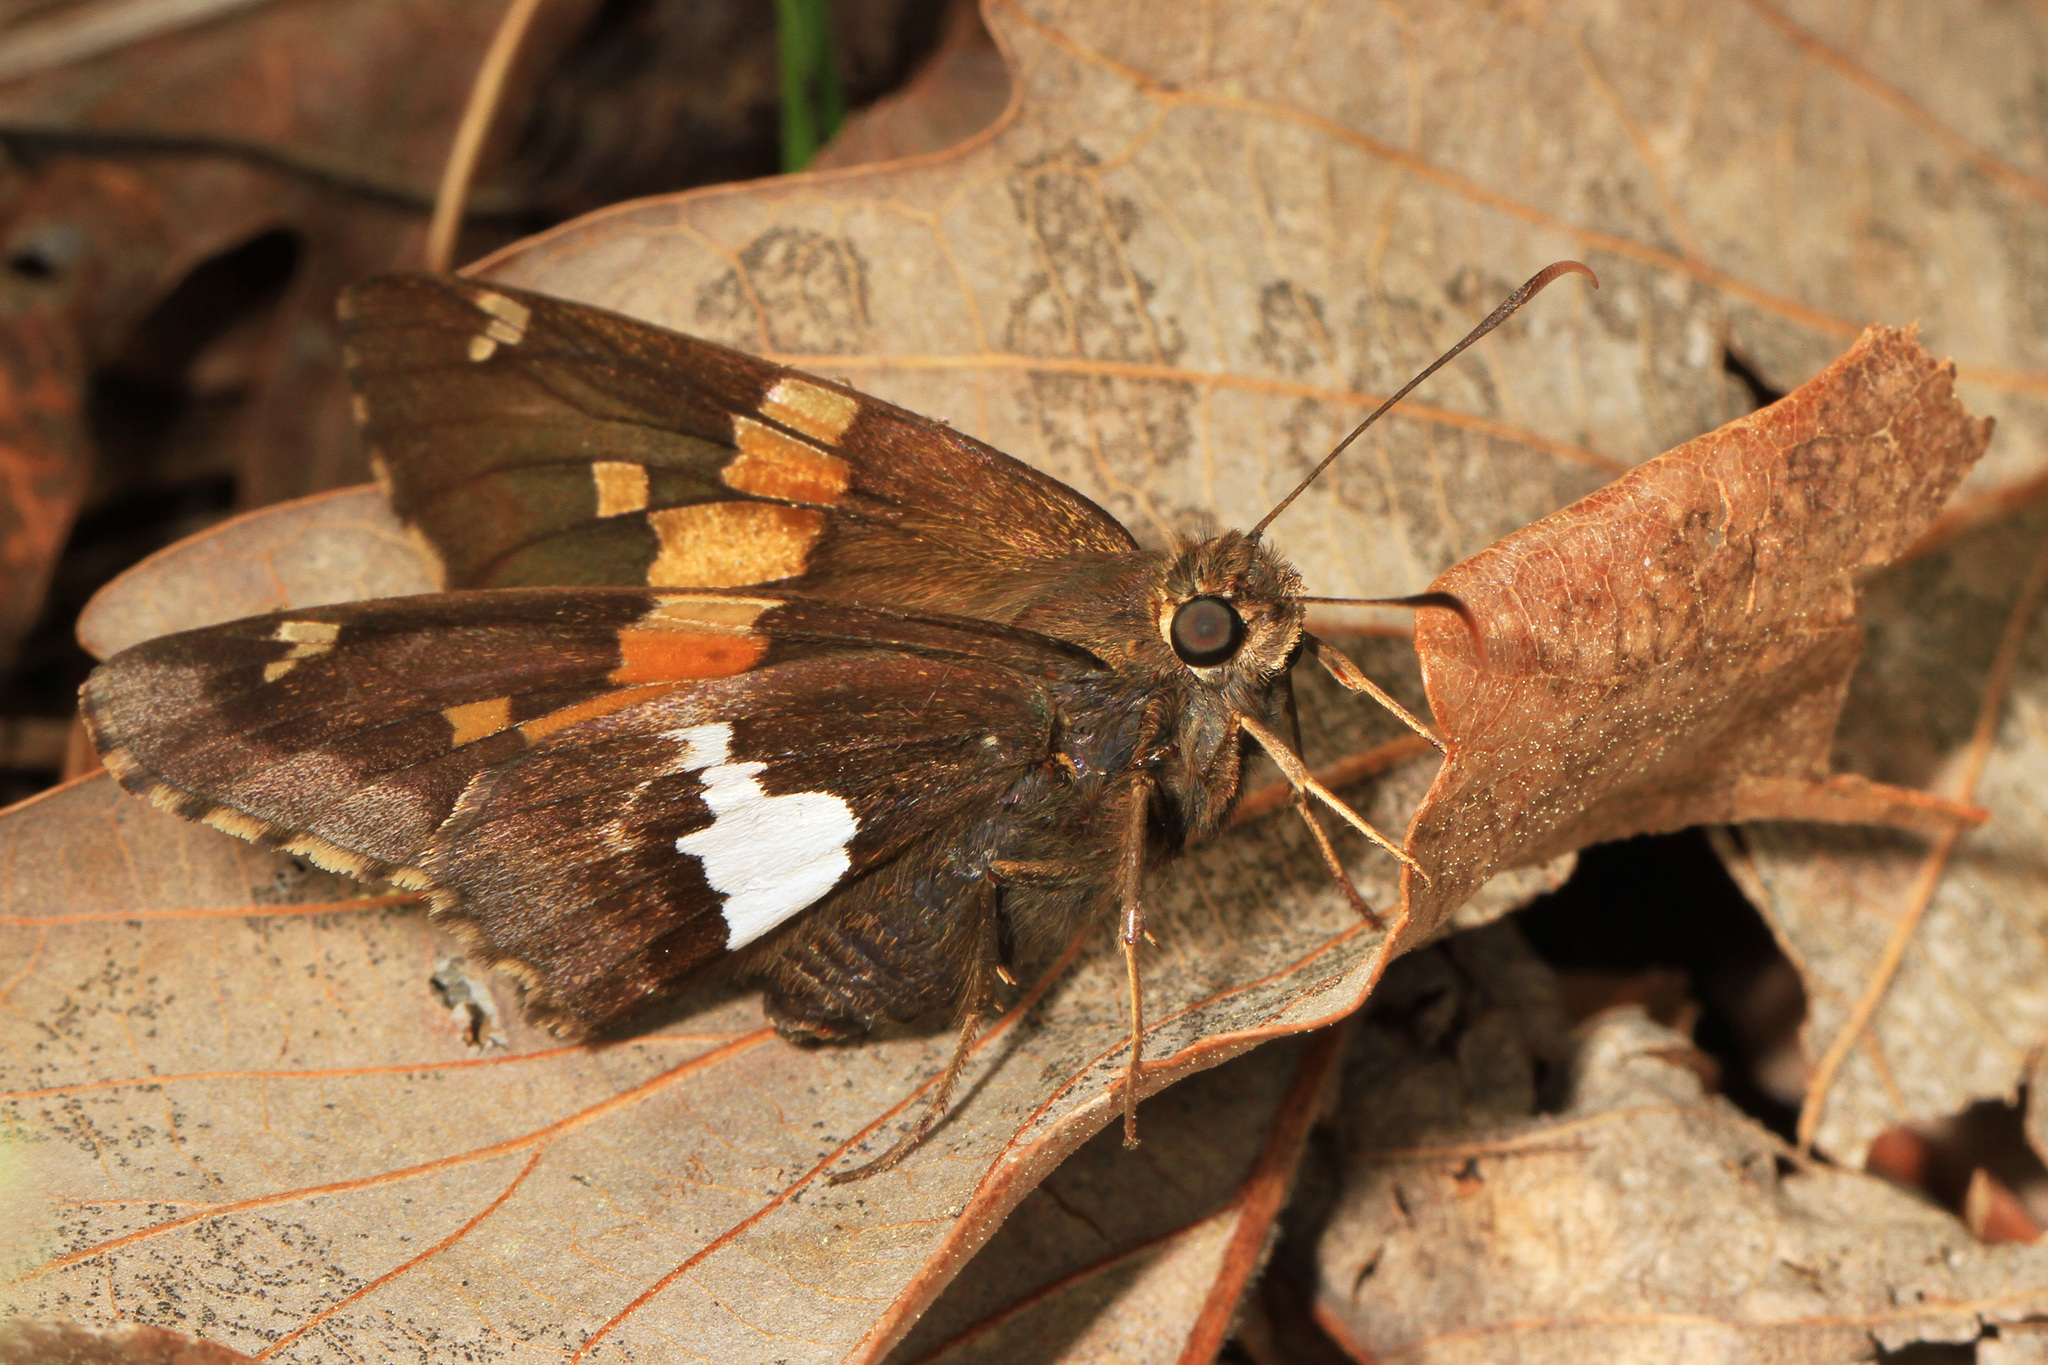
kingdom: Animalia
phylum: Arthropoda
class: Insecta
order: Lepidoptera
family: Hesperiidae
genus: Epargyreus
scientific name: Epargyreus clarus
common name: Silver-spotted skipper
